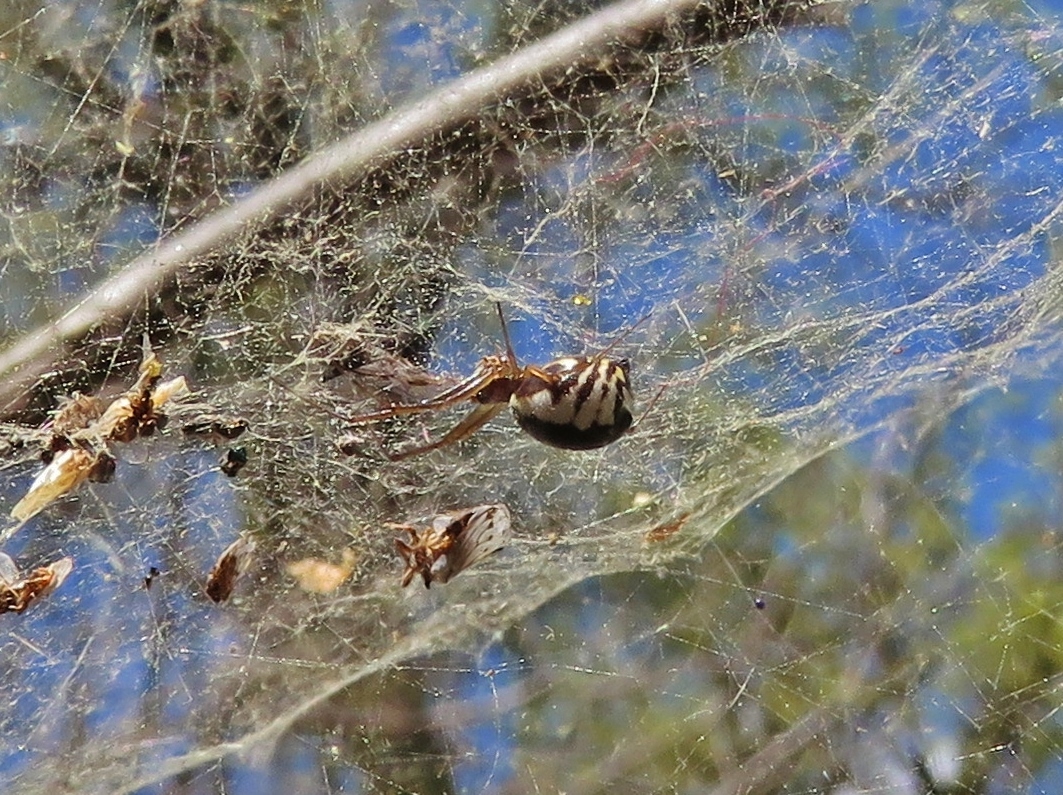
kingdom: Animalia
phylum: Arthropoda
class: Arachnida
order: Araneae
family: Linyphiidae
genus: Frontinella
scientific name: Frontinella pyramitela
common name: Bowl-and-doily spider
